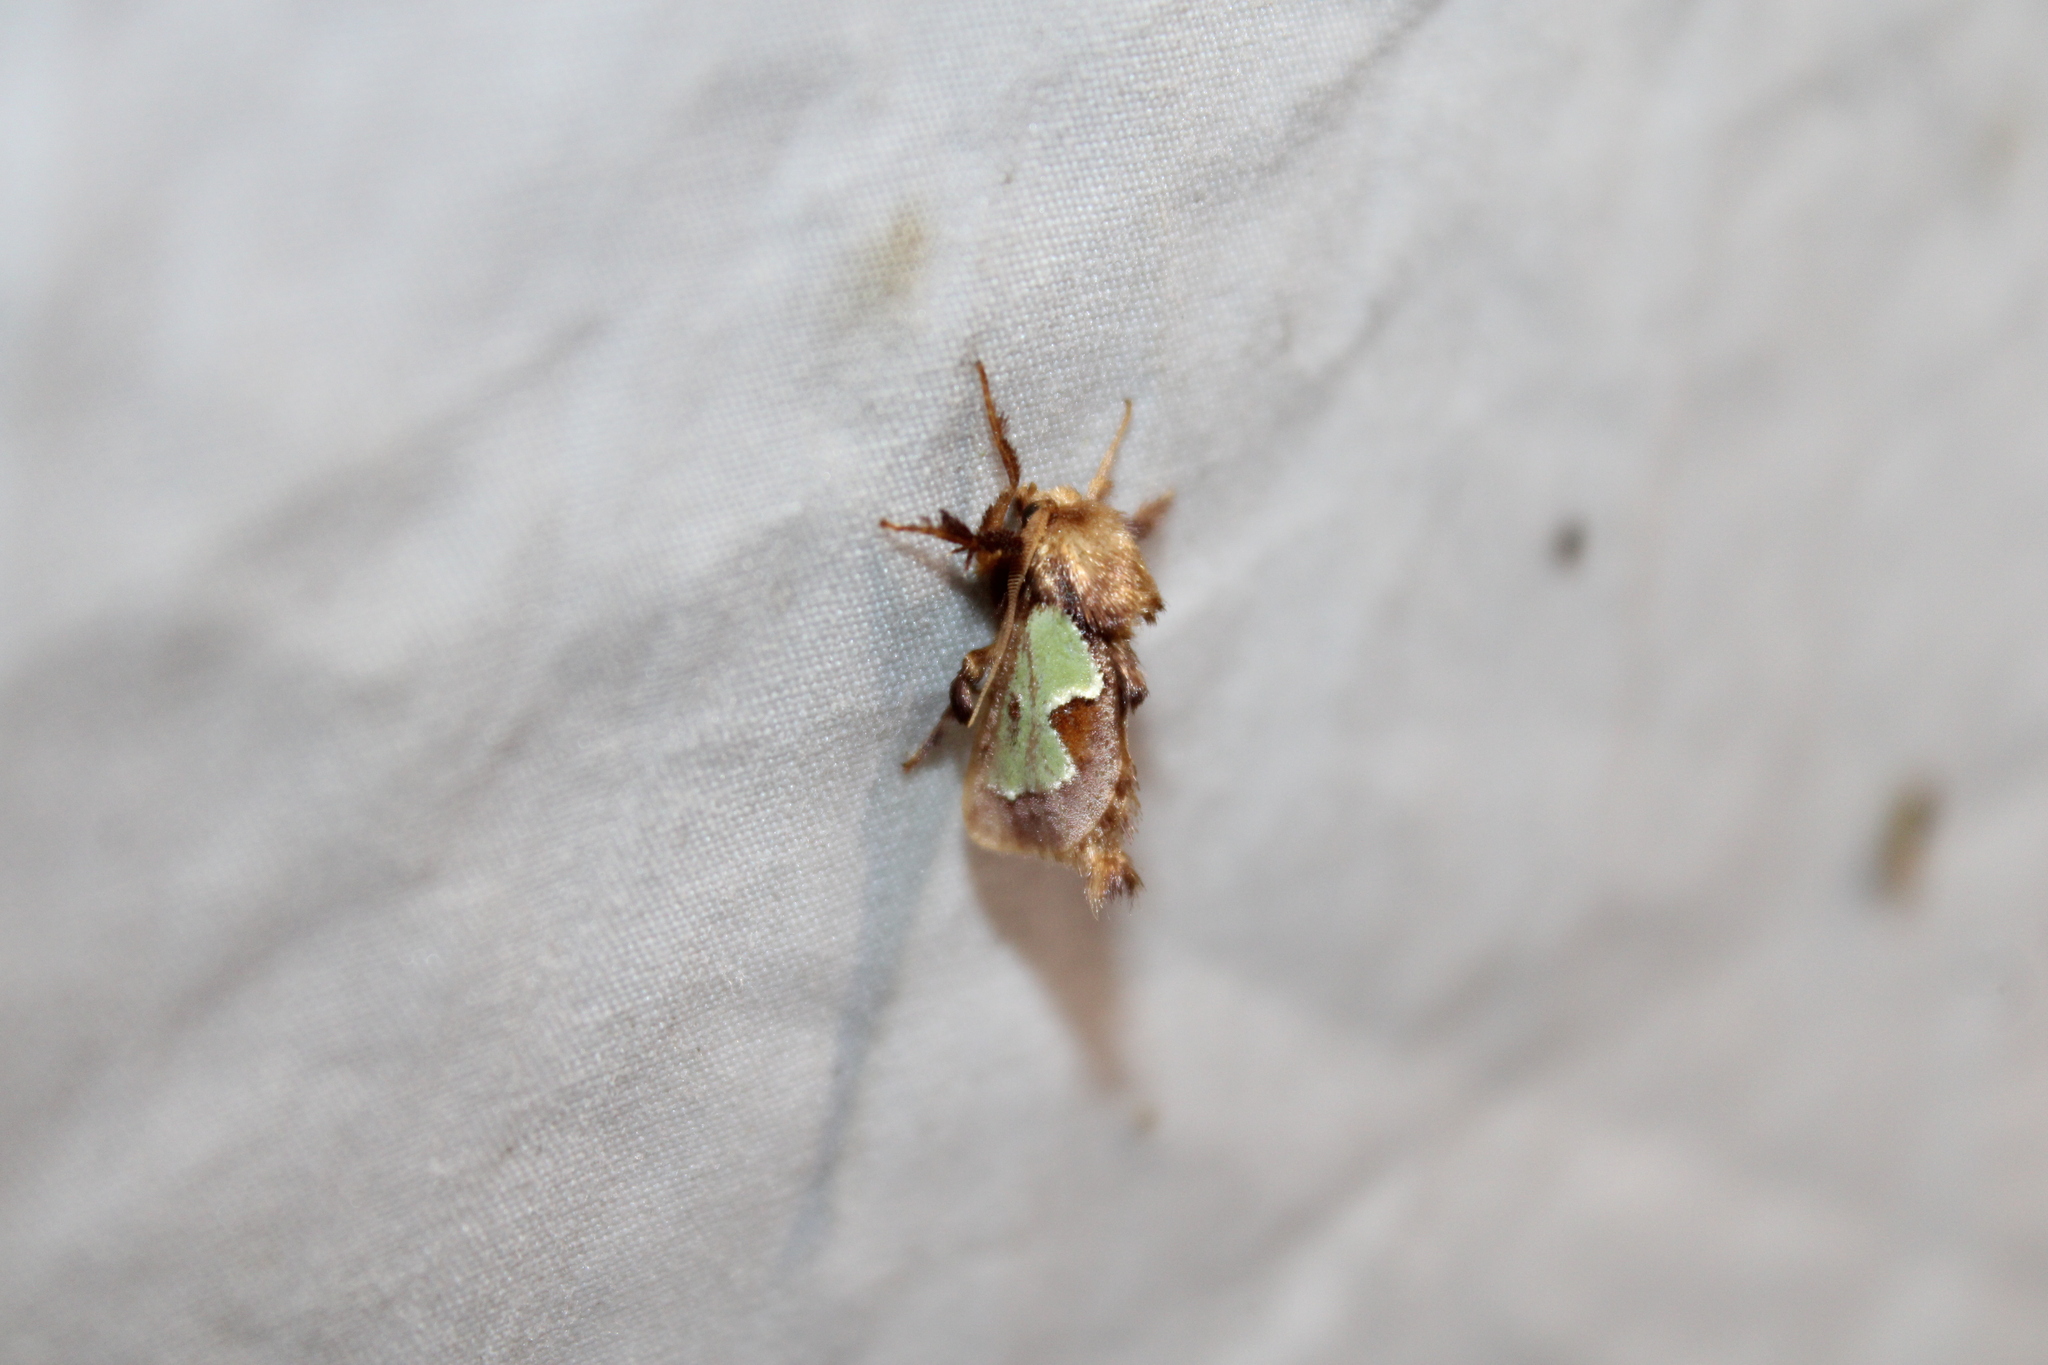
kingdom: Animalia
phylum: Arthropoda
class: Insecta
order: Lepidoptera
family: Limacodidae
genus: Euclea
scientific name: Euclea delphinii
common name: Spiny oak-slug moth
